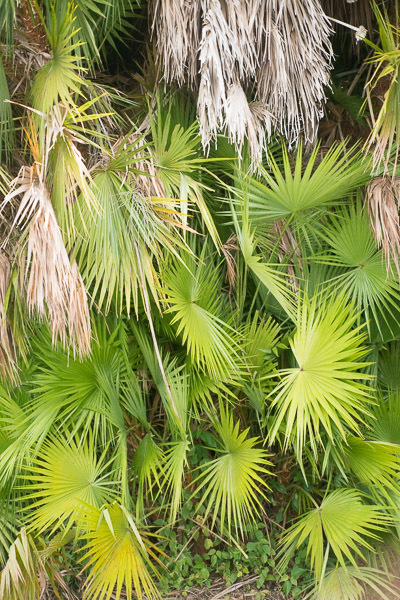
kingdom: Plantae
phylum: Tracheophyta
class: Liliopsida
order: Arecales
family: Arecaceae
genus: Acoelorraphe
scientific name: Acoelorraphe wrightii
